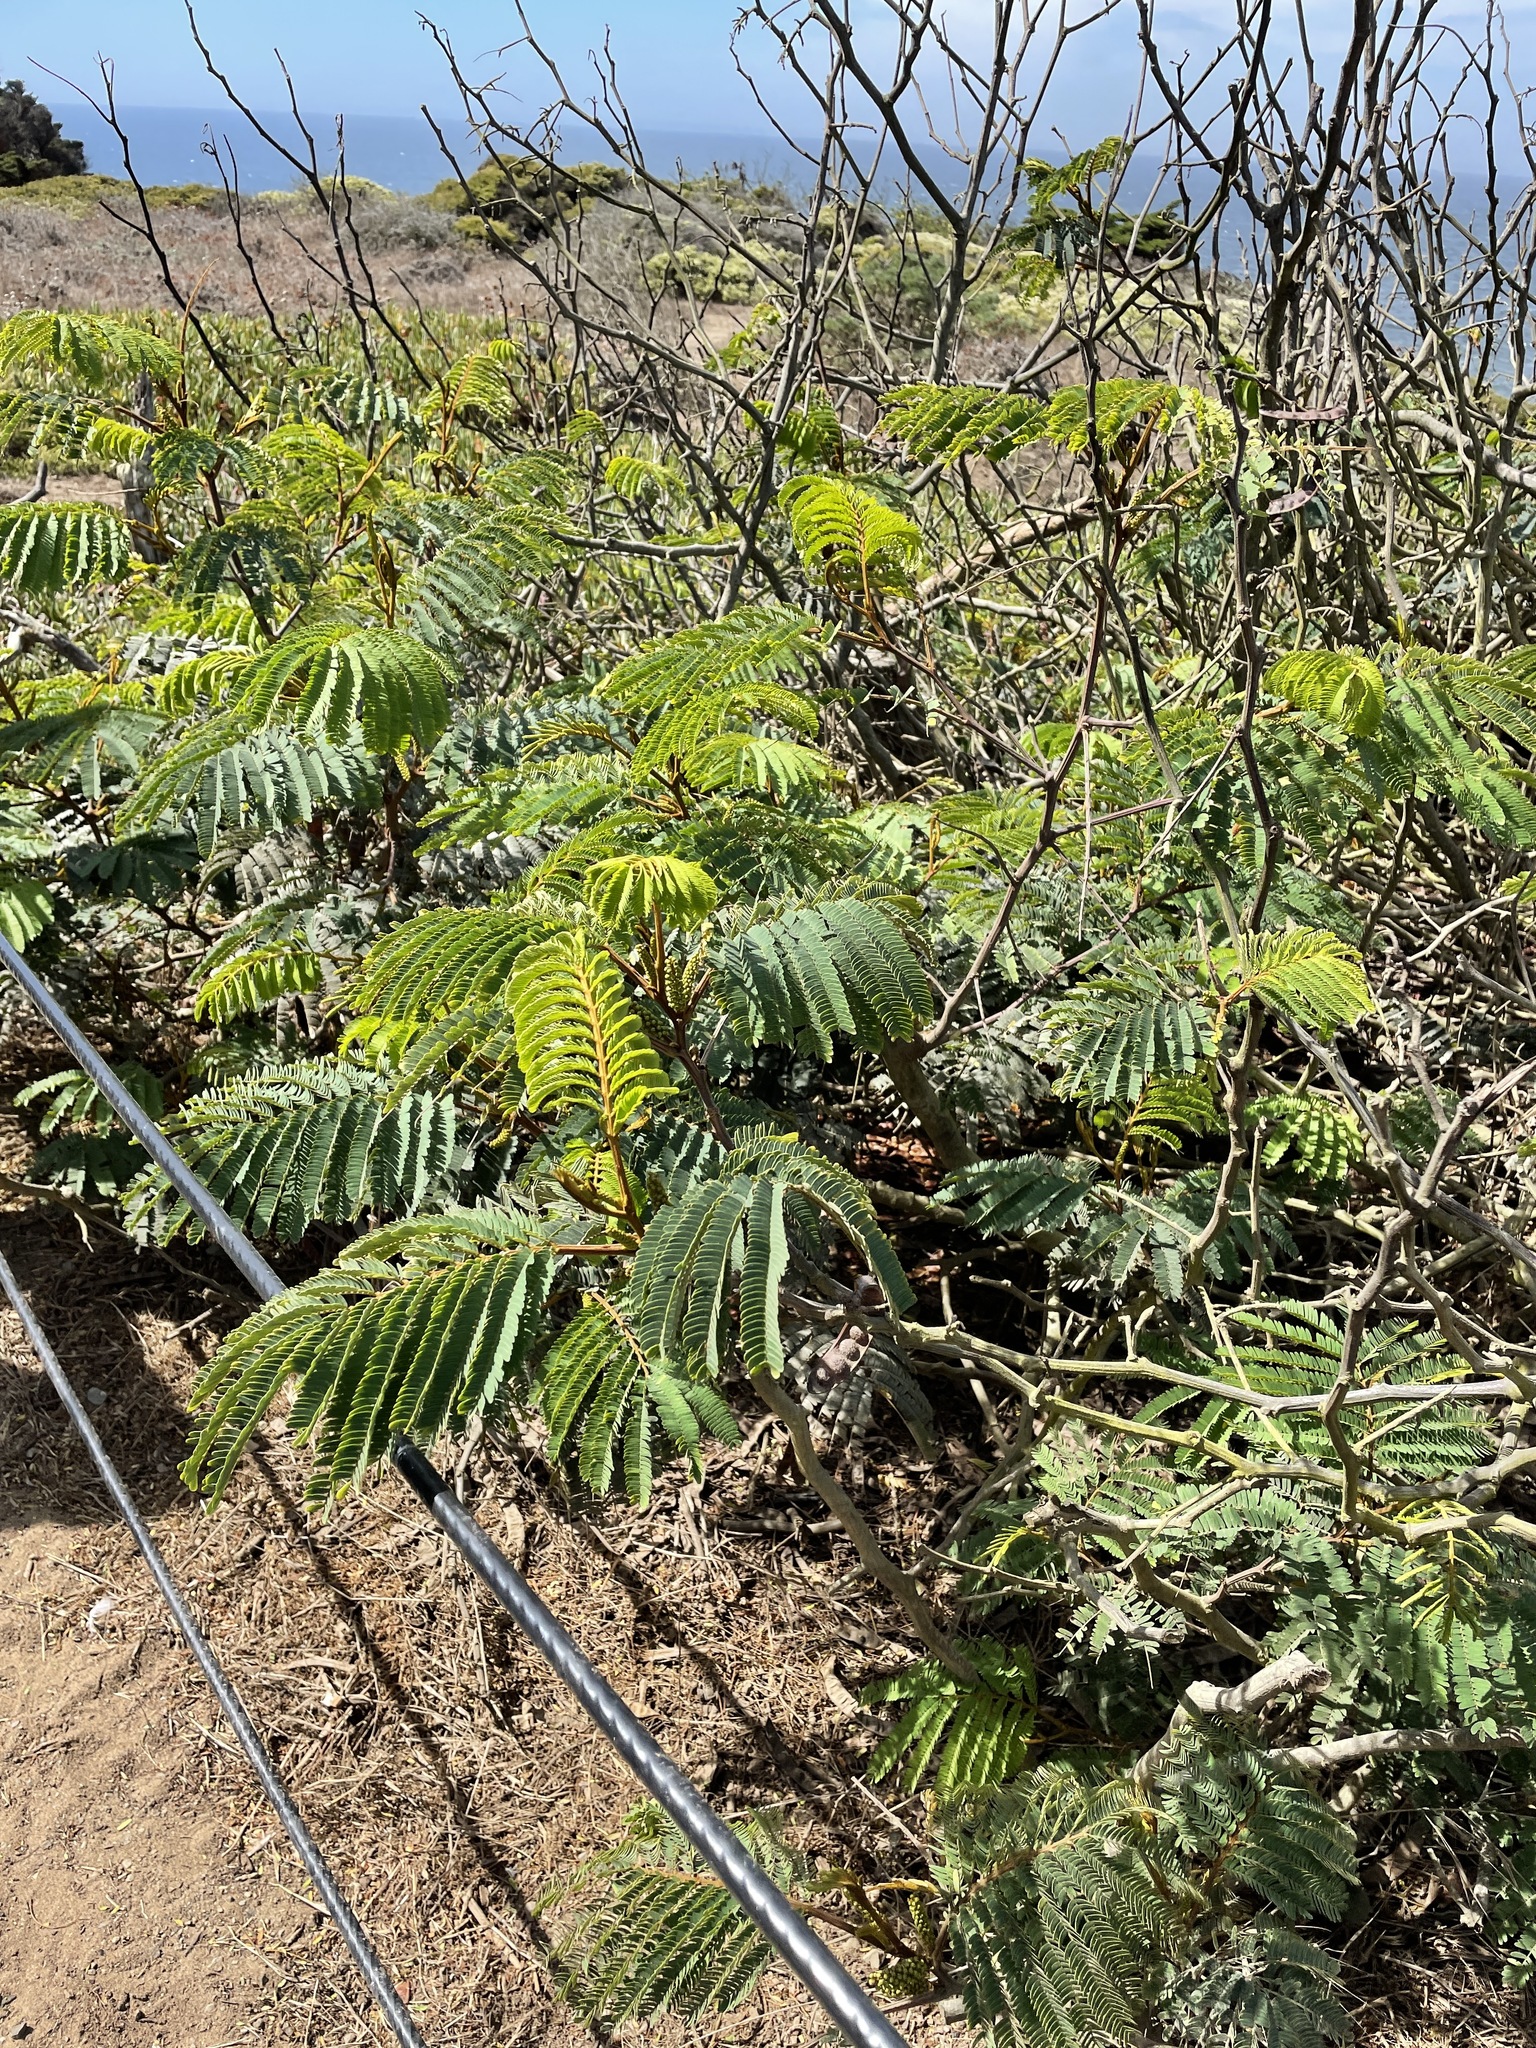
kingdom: Plantae
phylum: Tracheophyta
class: Magnoliopsida
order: Fabales
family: Fabaceae
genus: Paraserianthes
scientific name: Paraserianthes lophantha
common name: Plume albizia
